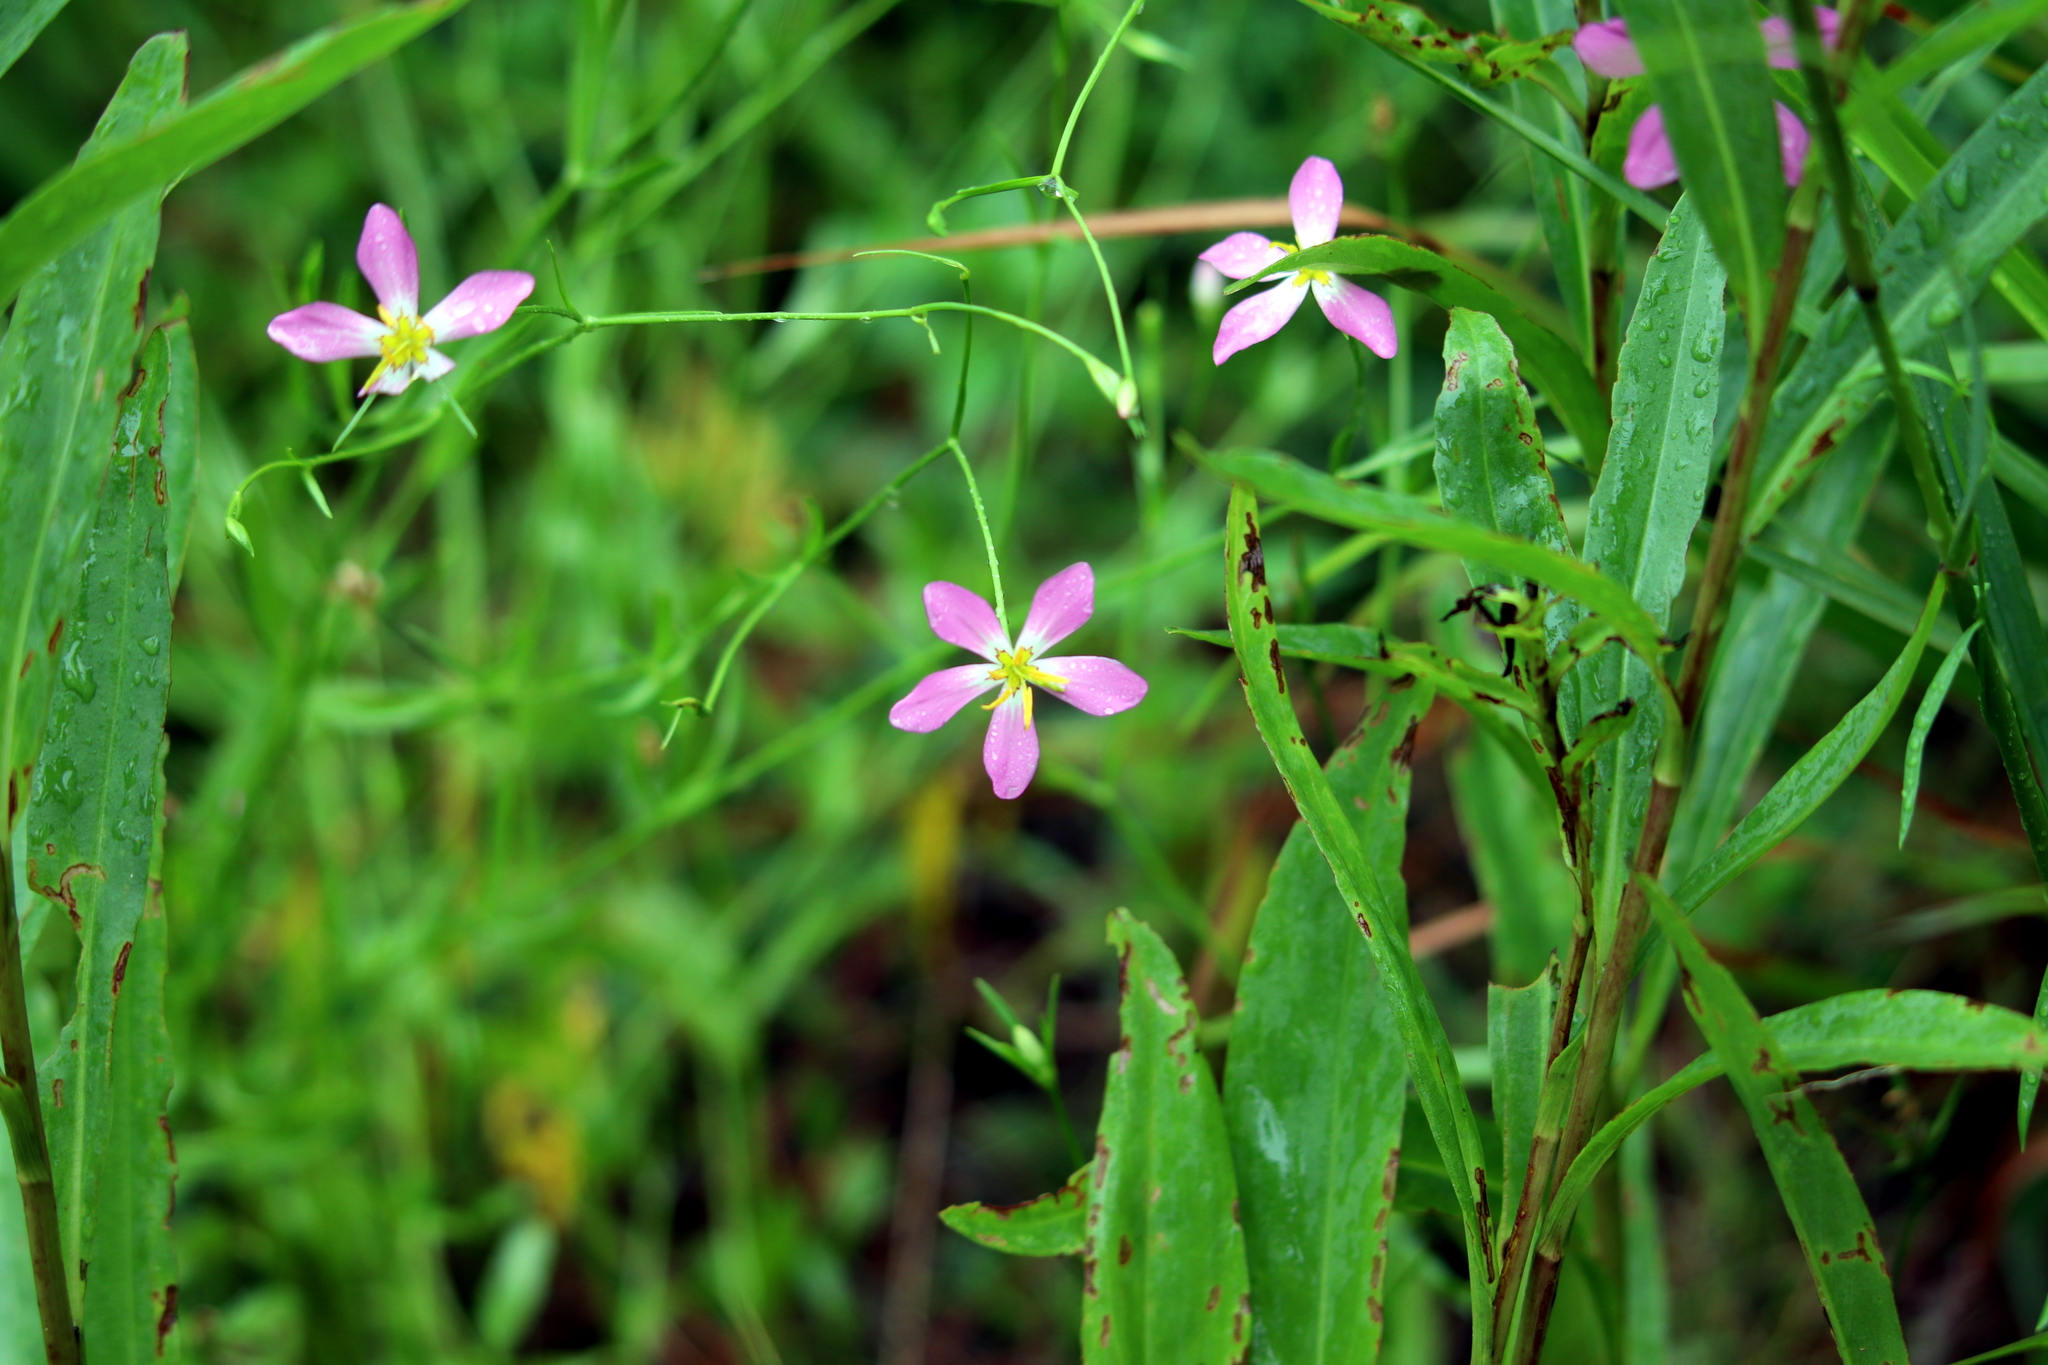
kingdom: Plantae
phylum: Tracheophyta
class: Magnoliopsida
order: Gentianales
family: Gentianaceae
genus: Sabatia
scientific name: Sabatia campanulata
